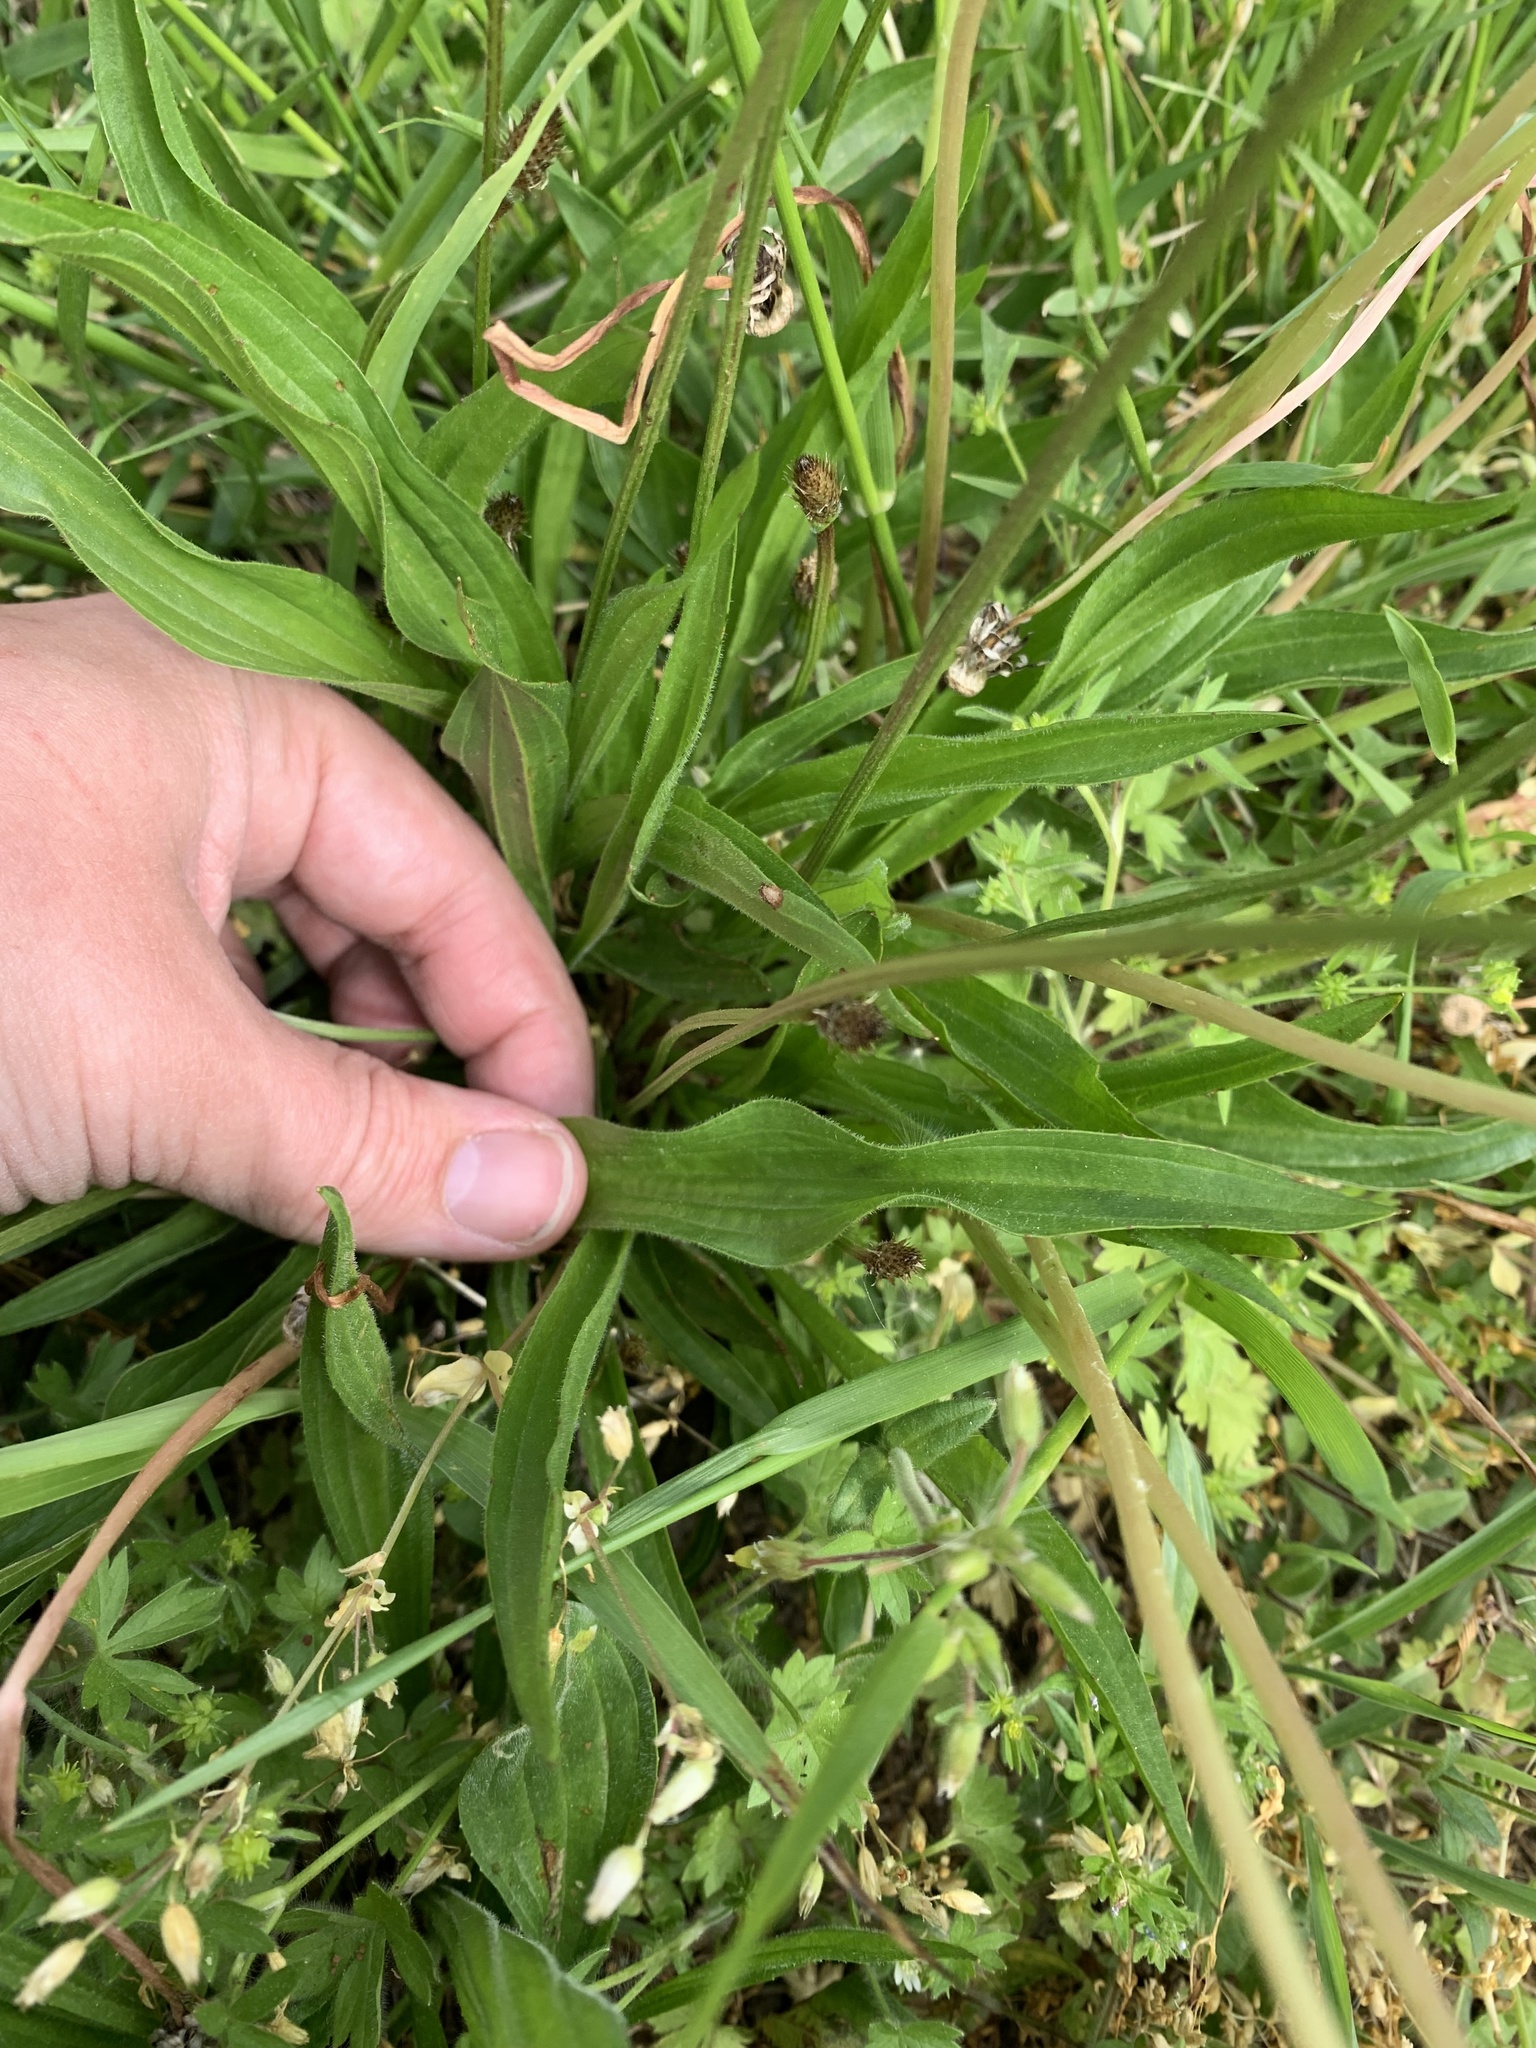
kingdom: Plantae
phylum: Tracheophyta
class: Magnoliopsida
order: Lamiales
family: Plantaginaceae
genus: Plantago
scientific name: Plantago lanceolata
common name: Ribwort plantain
